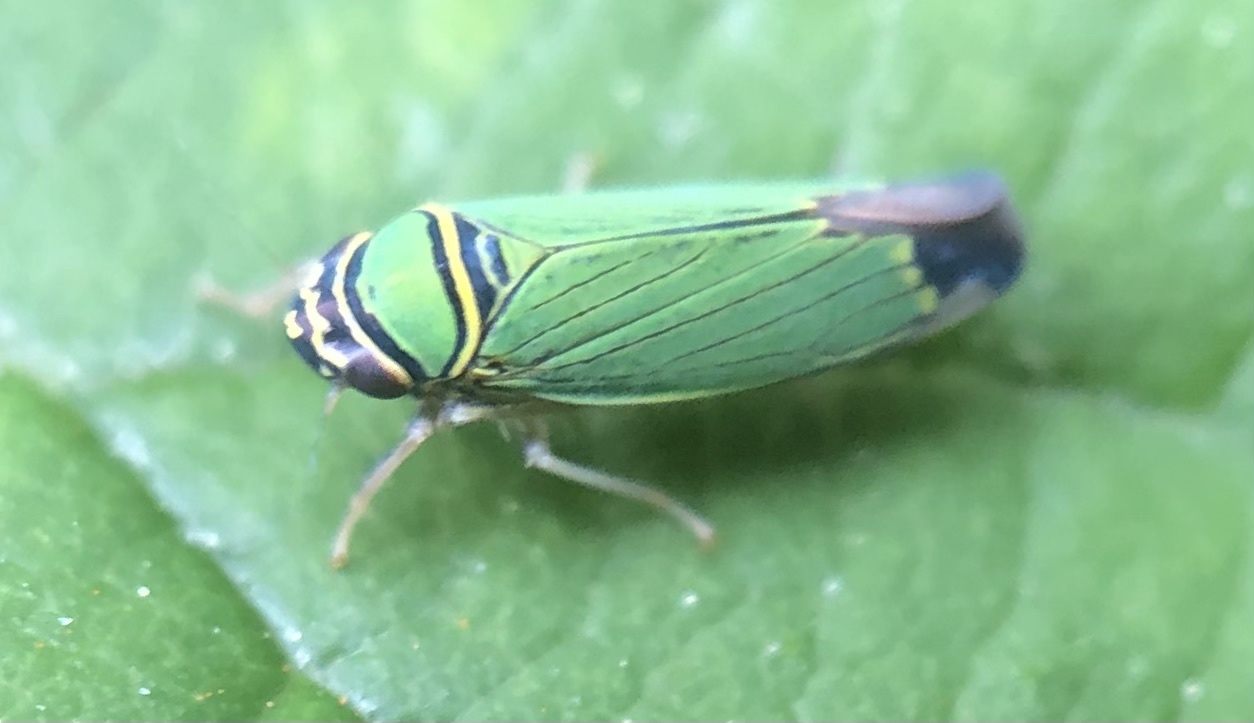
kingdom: Animalia
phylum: Arthropoda
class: Insecta
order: Hemiptera
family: Cicadellidae
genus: Tylozygus
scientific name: Tylozygus geometricus
